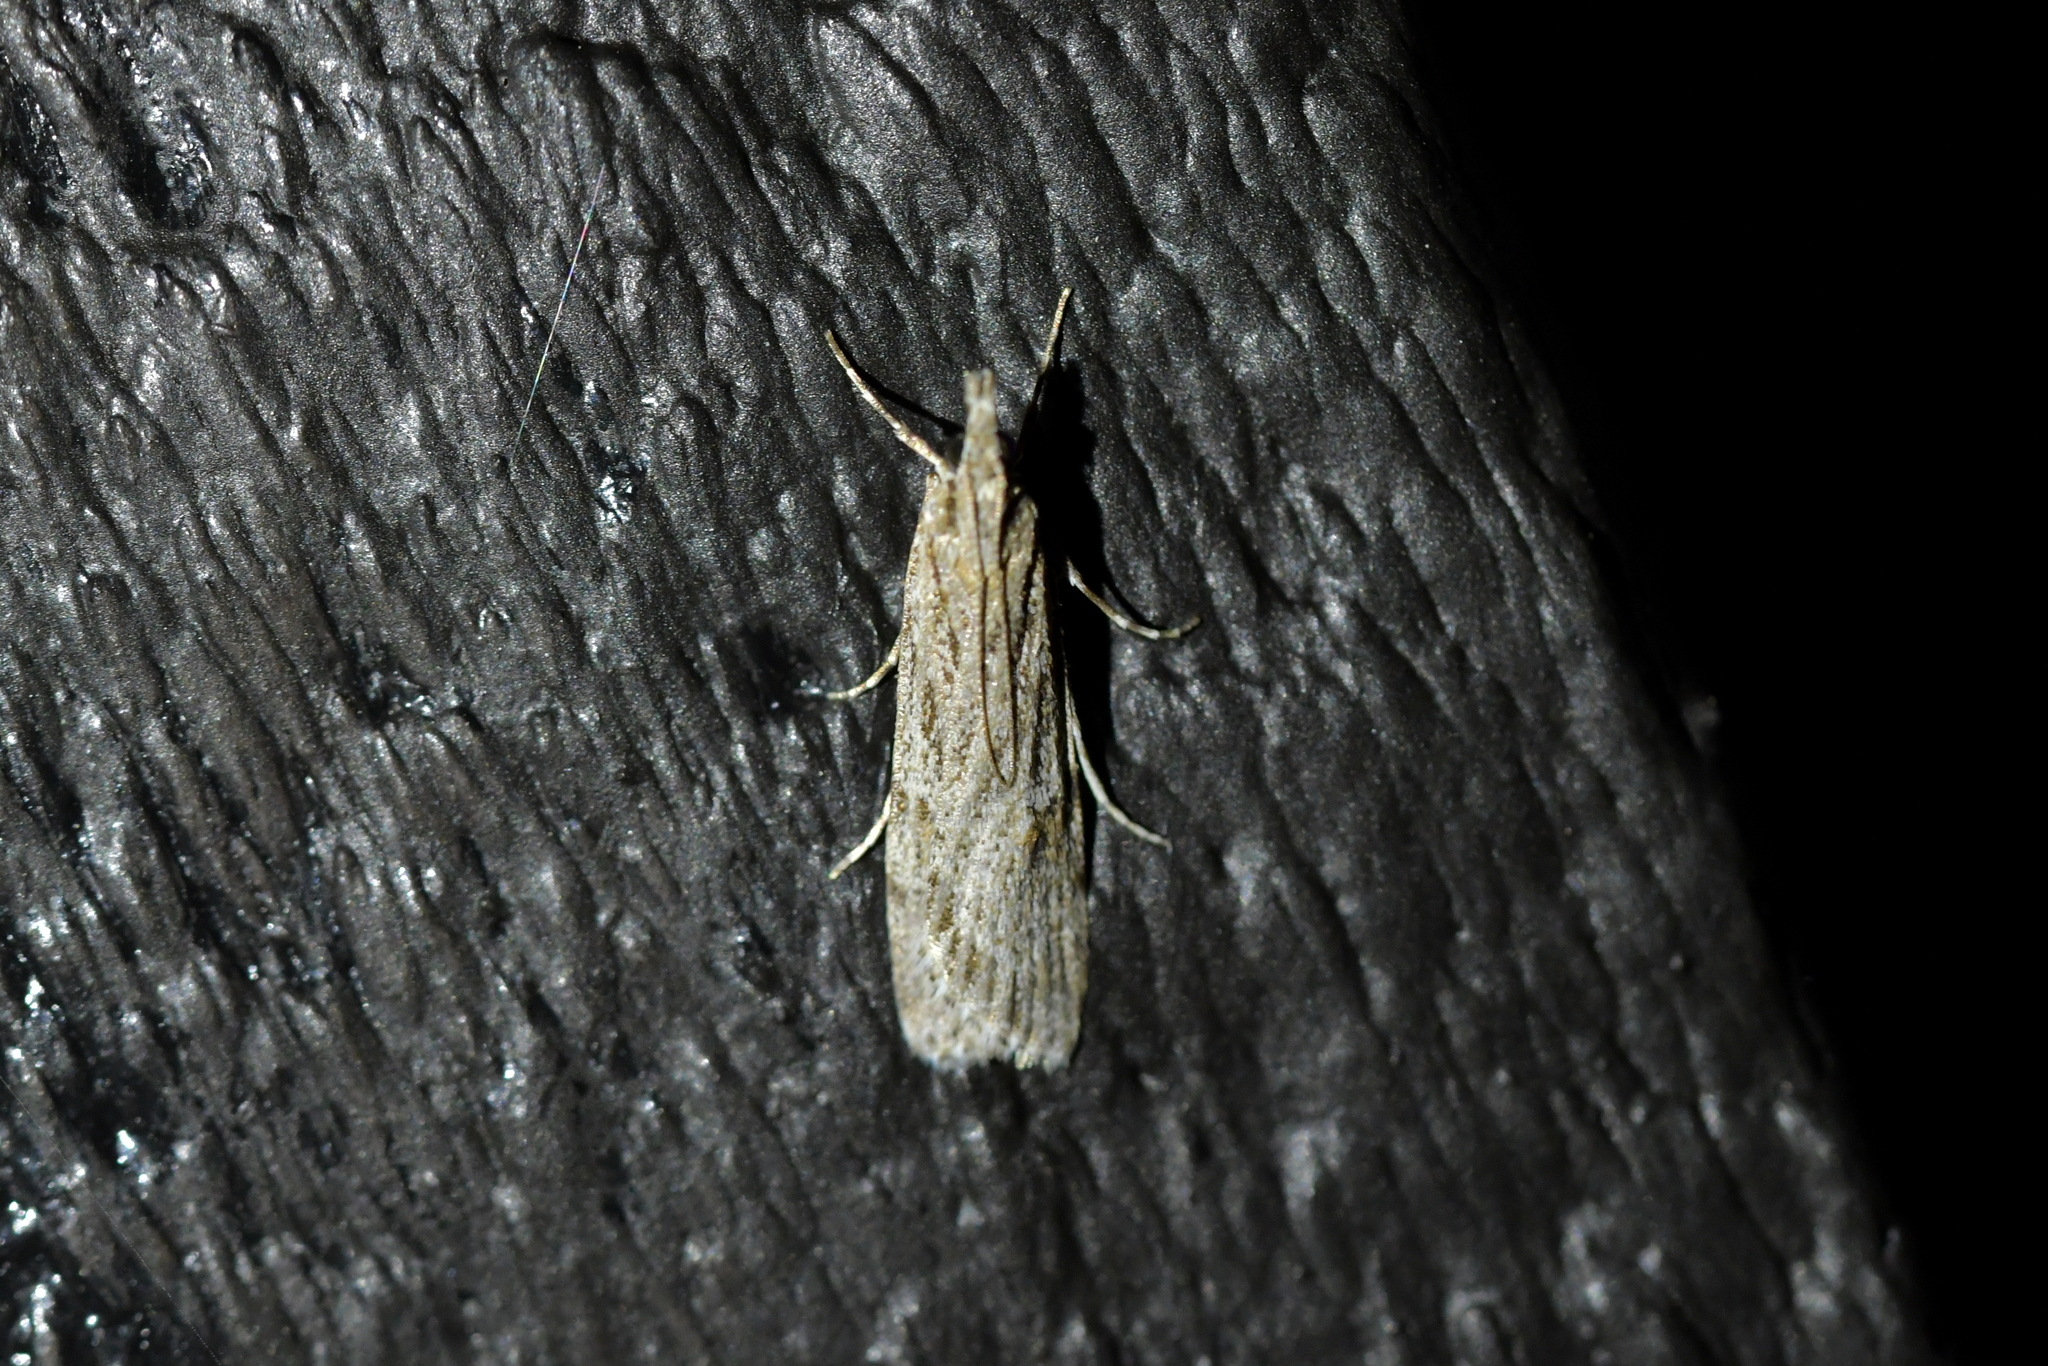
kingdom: Animalia
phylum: Arthropoda
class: Insecta
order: Lepidoptera
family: Crambidae
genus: Scoparia
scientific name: Scoparia chalicodes
